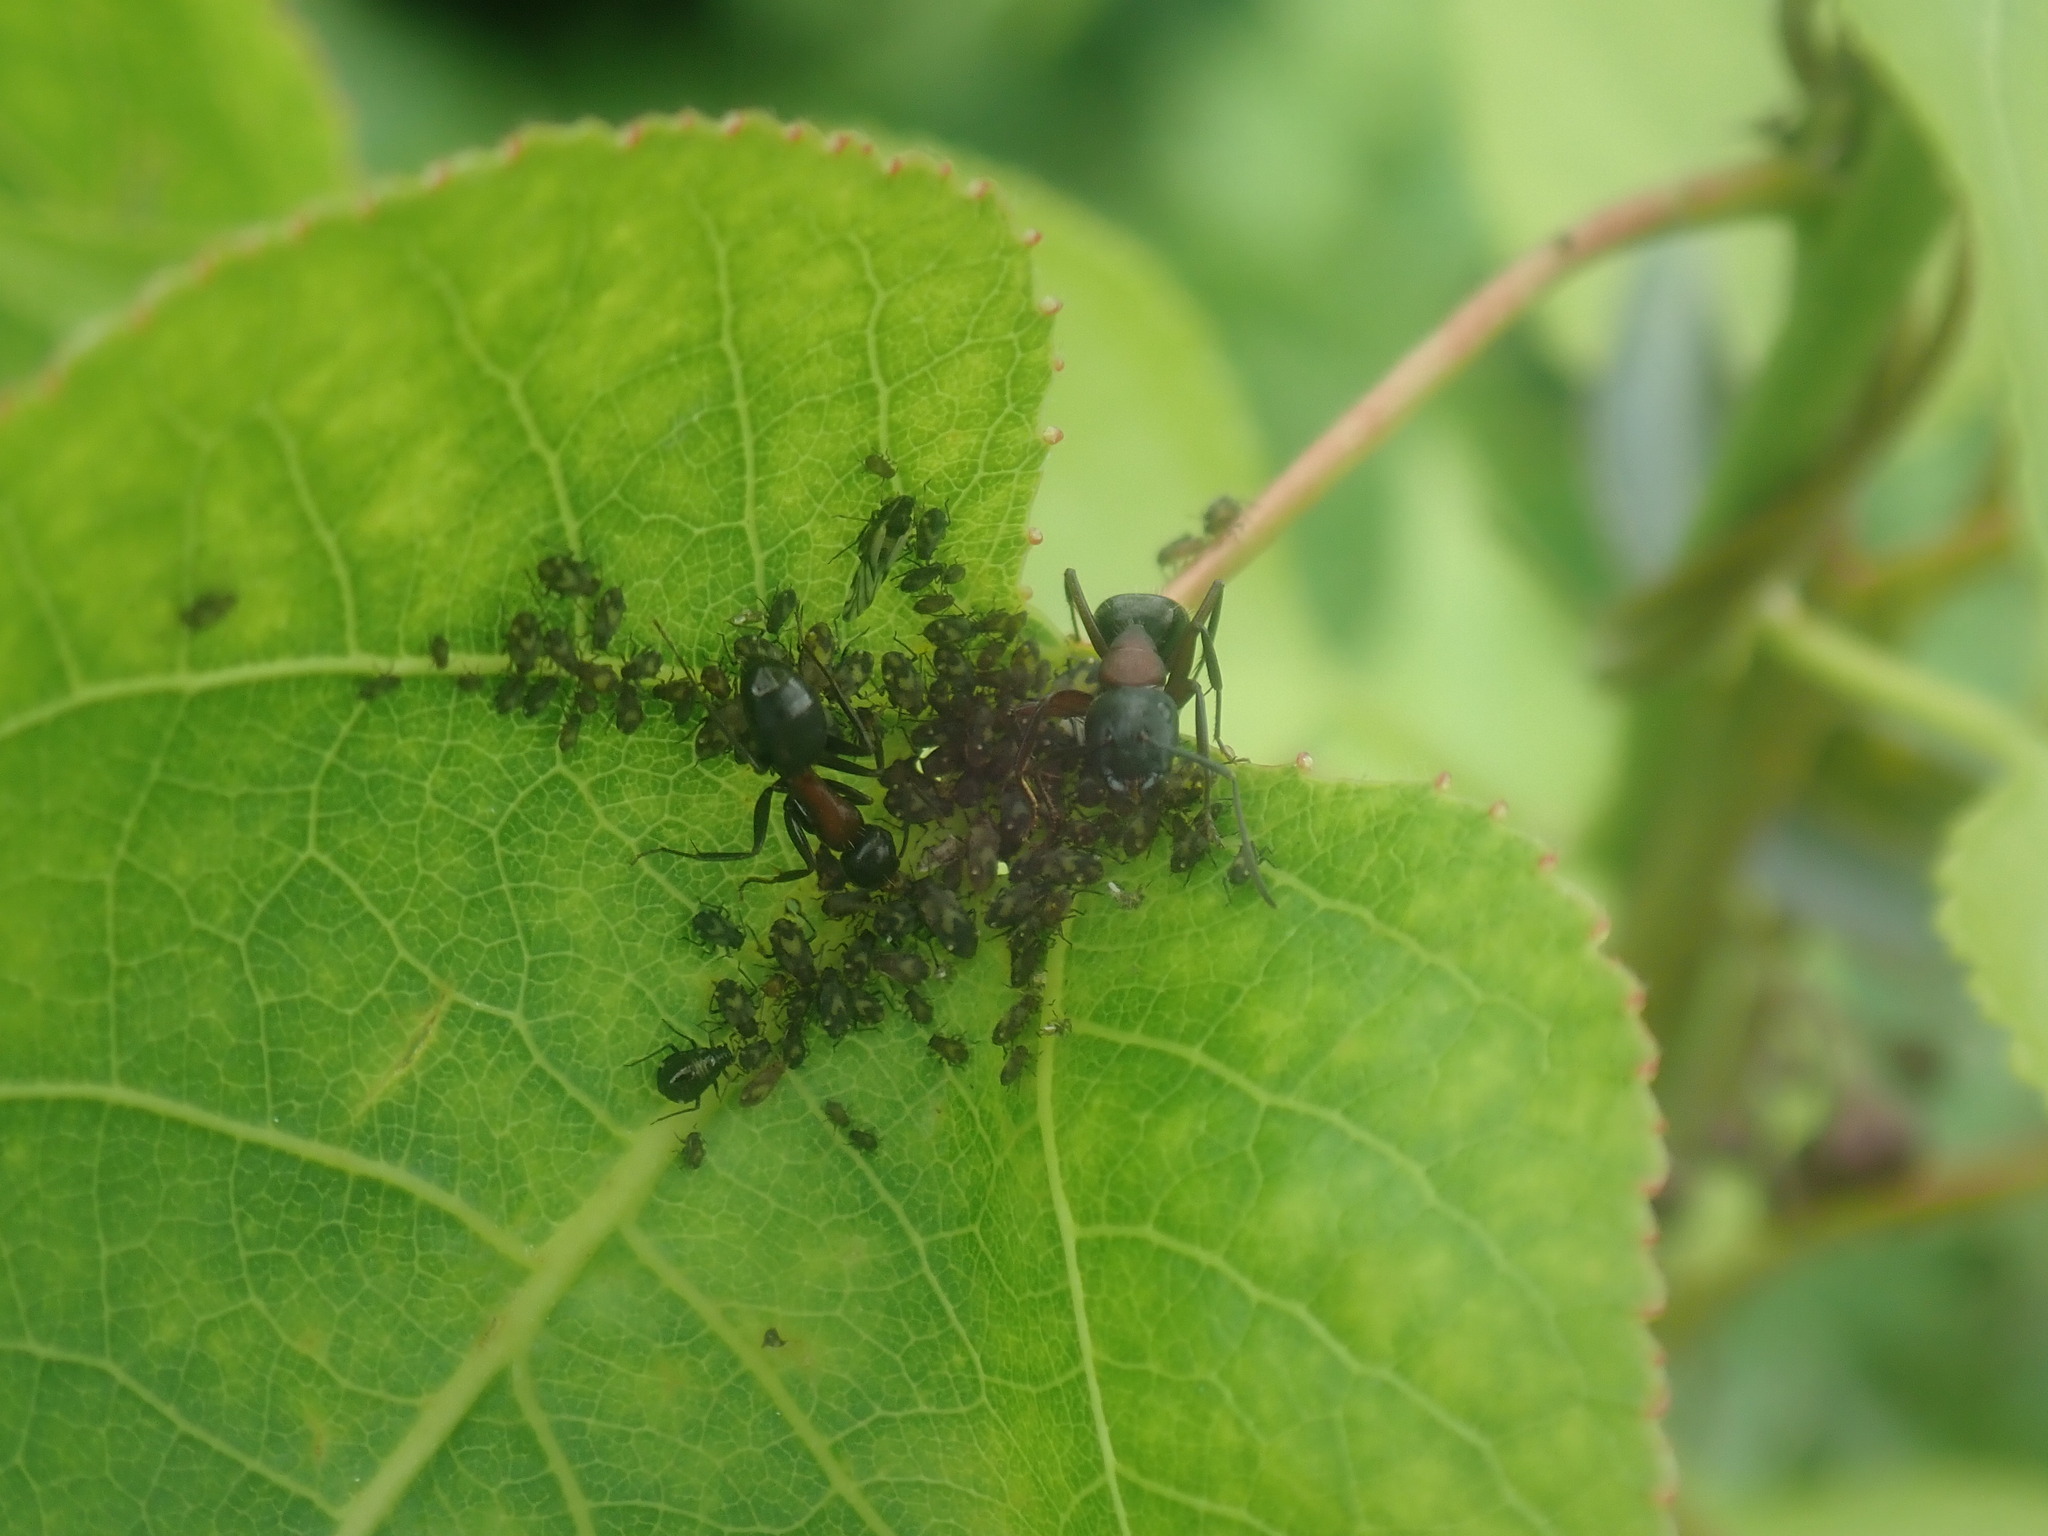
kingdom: Animalia
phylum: Arthropoda
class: Insecta
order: Hymenoptera
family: Formicidae
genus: Camponotus
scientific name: Camponotus novaeboracensis
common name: New york carpenter ant
